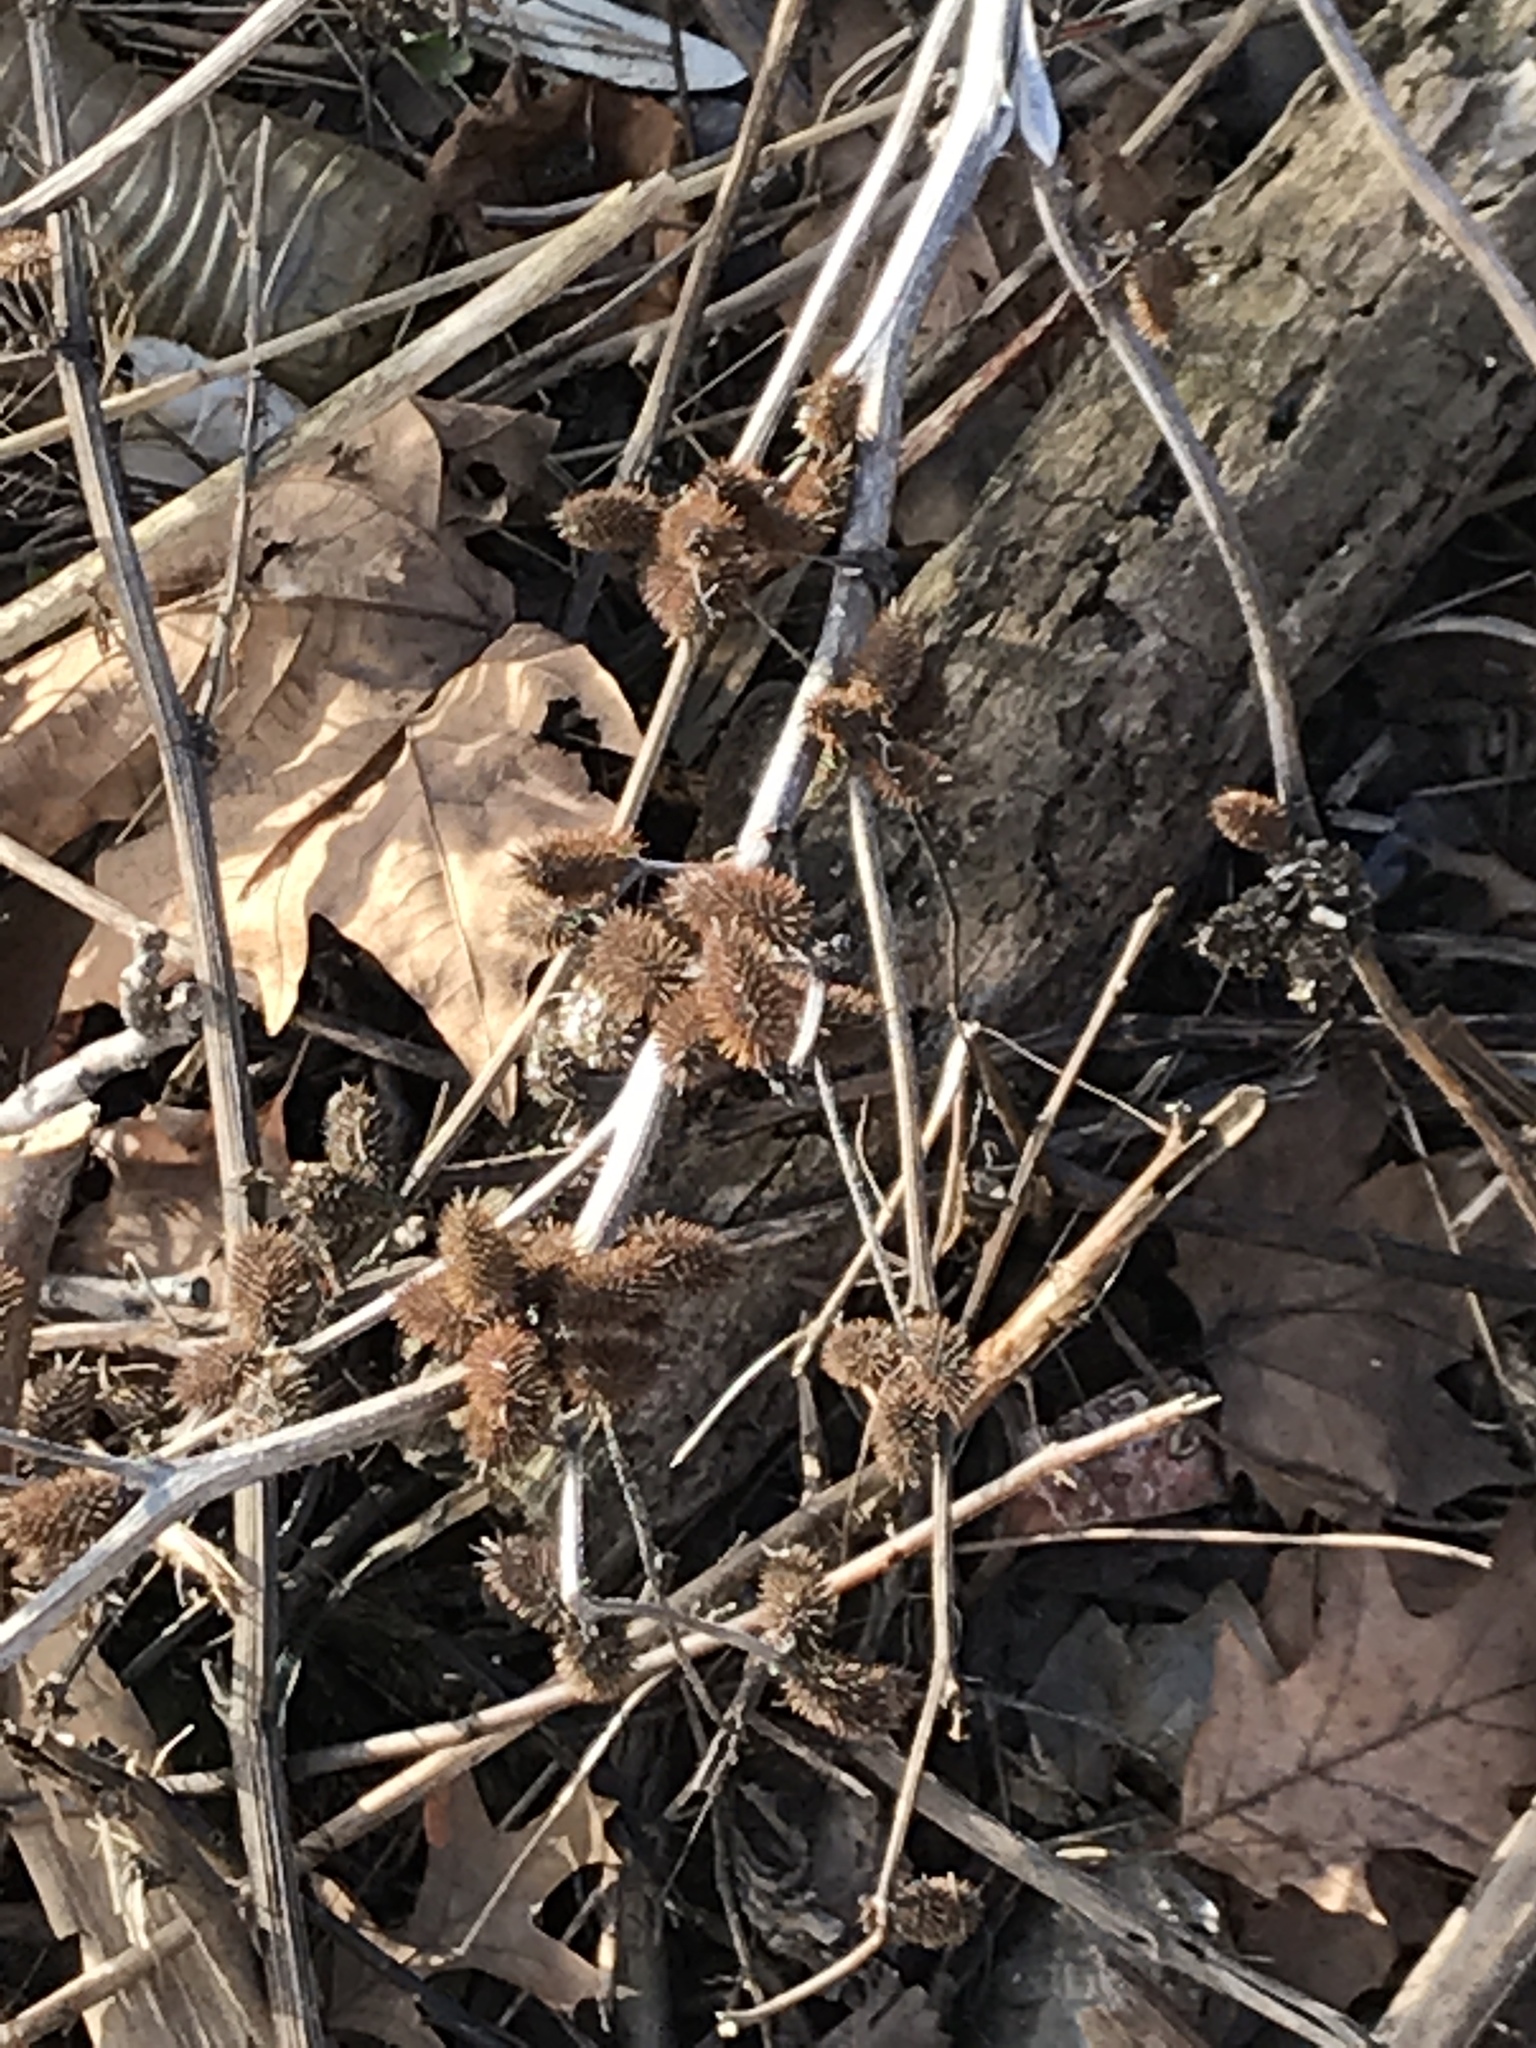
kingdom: Plantae
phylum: Tracheophyta
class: Magnoliopsida
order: Asterales
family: Asteraceae
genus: Xanthium
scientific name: Xanthium strumarium
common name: Rough cocklebur
